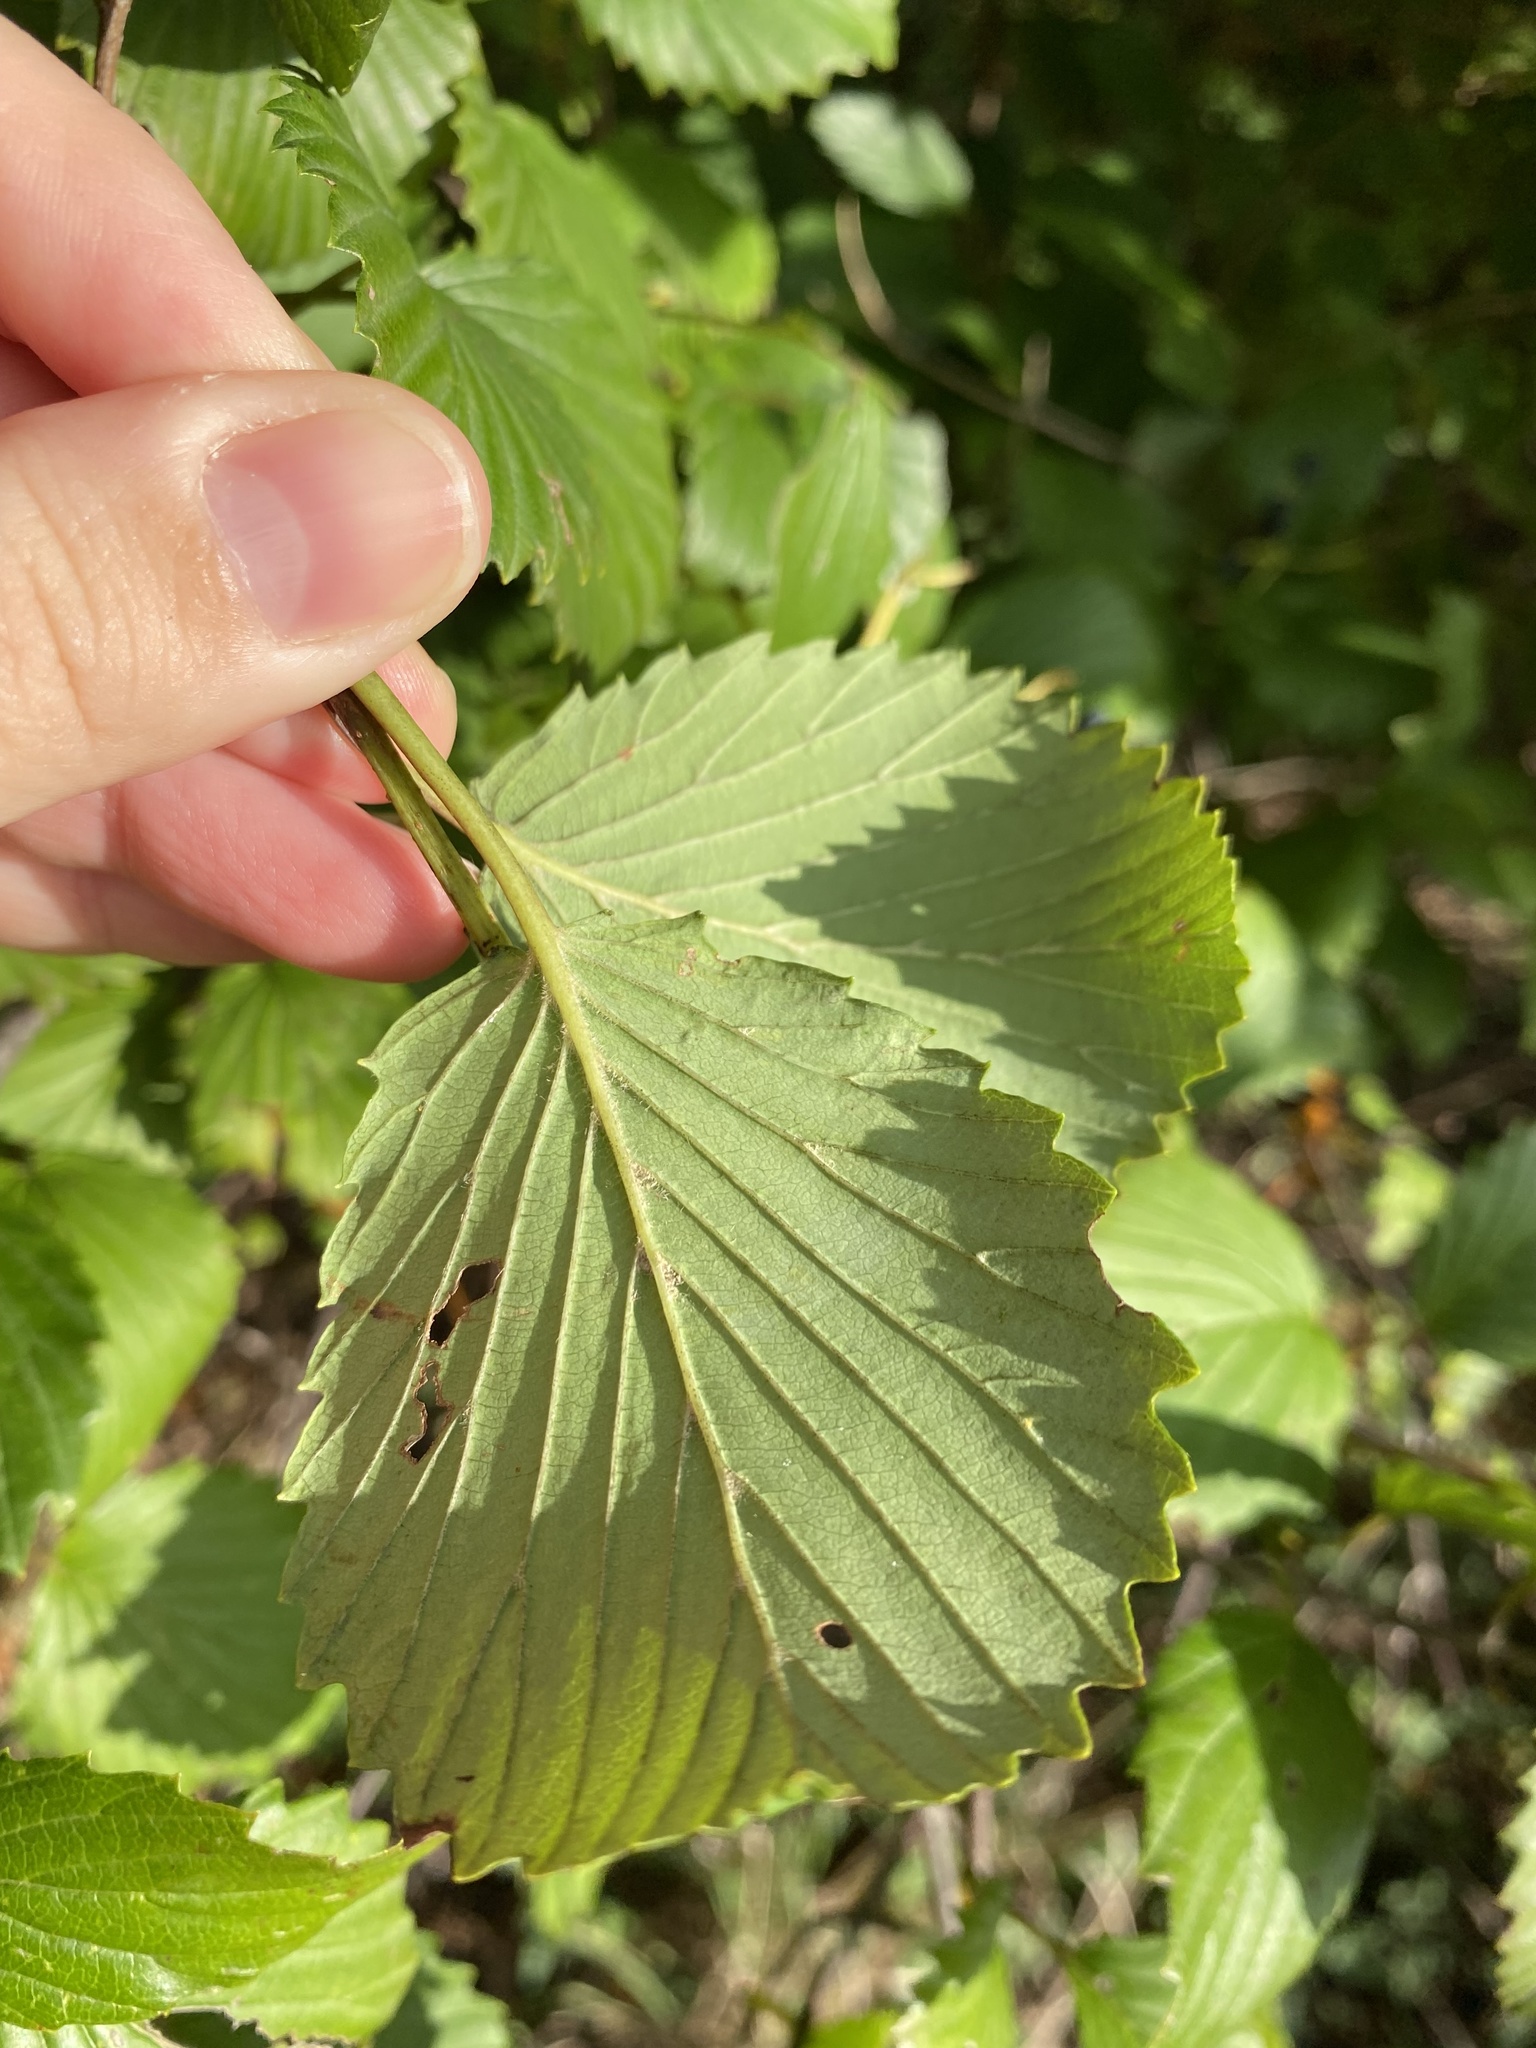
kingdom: Plantae
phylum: Tracheophyta
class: Magnoliopsida
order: Dipsacales
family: Viburnaceae
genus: Viburnum
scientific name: Viburnum dentatum
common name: Arrow-wood
